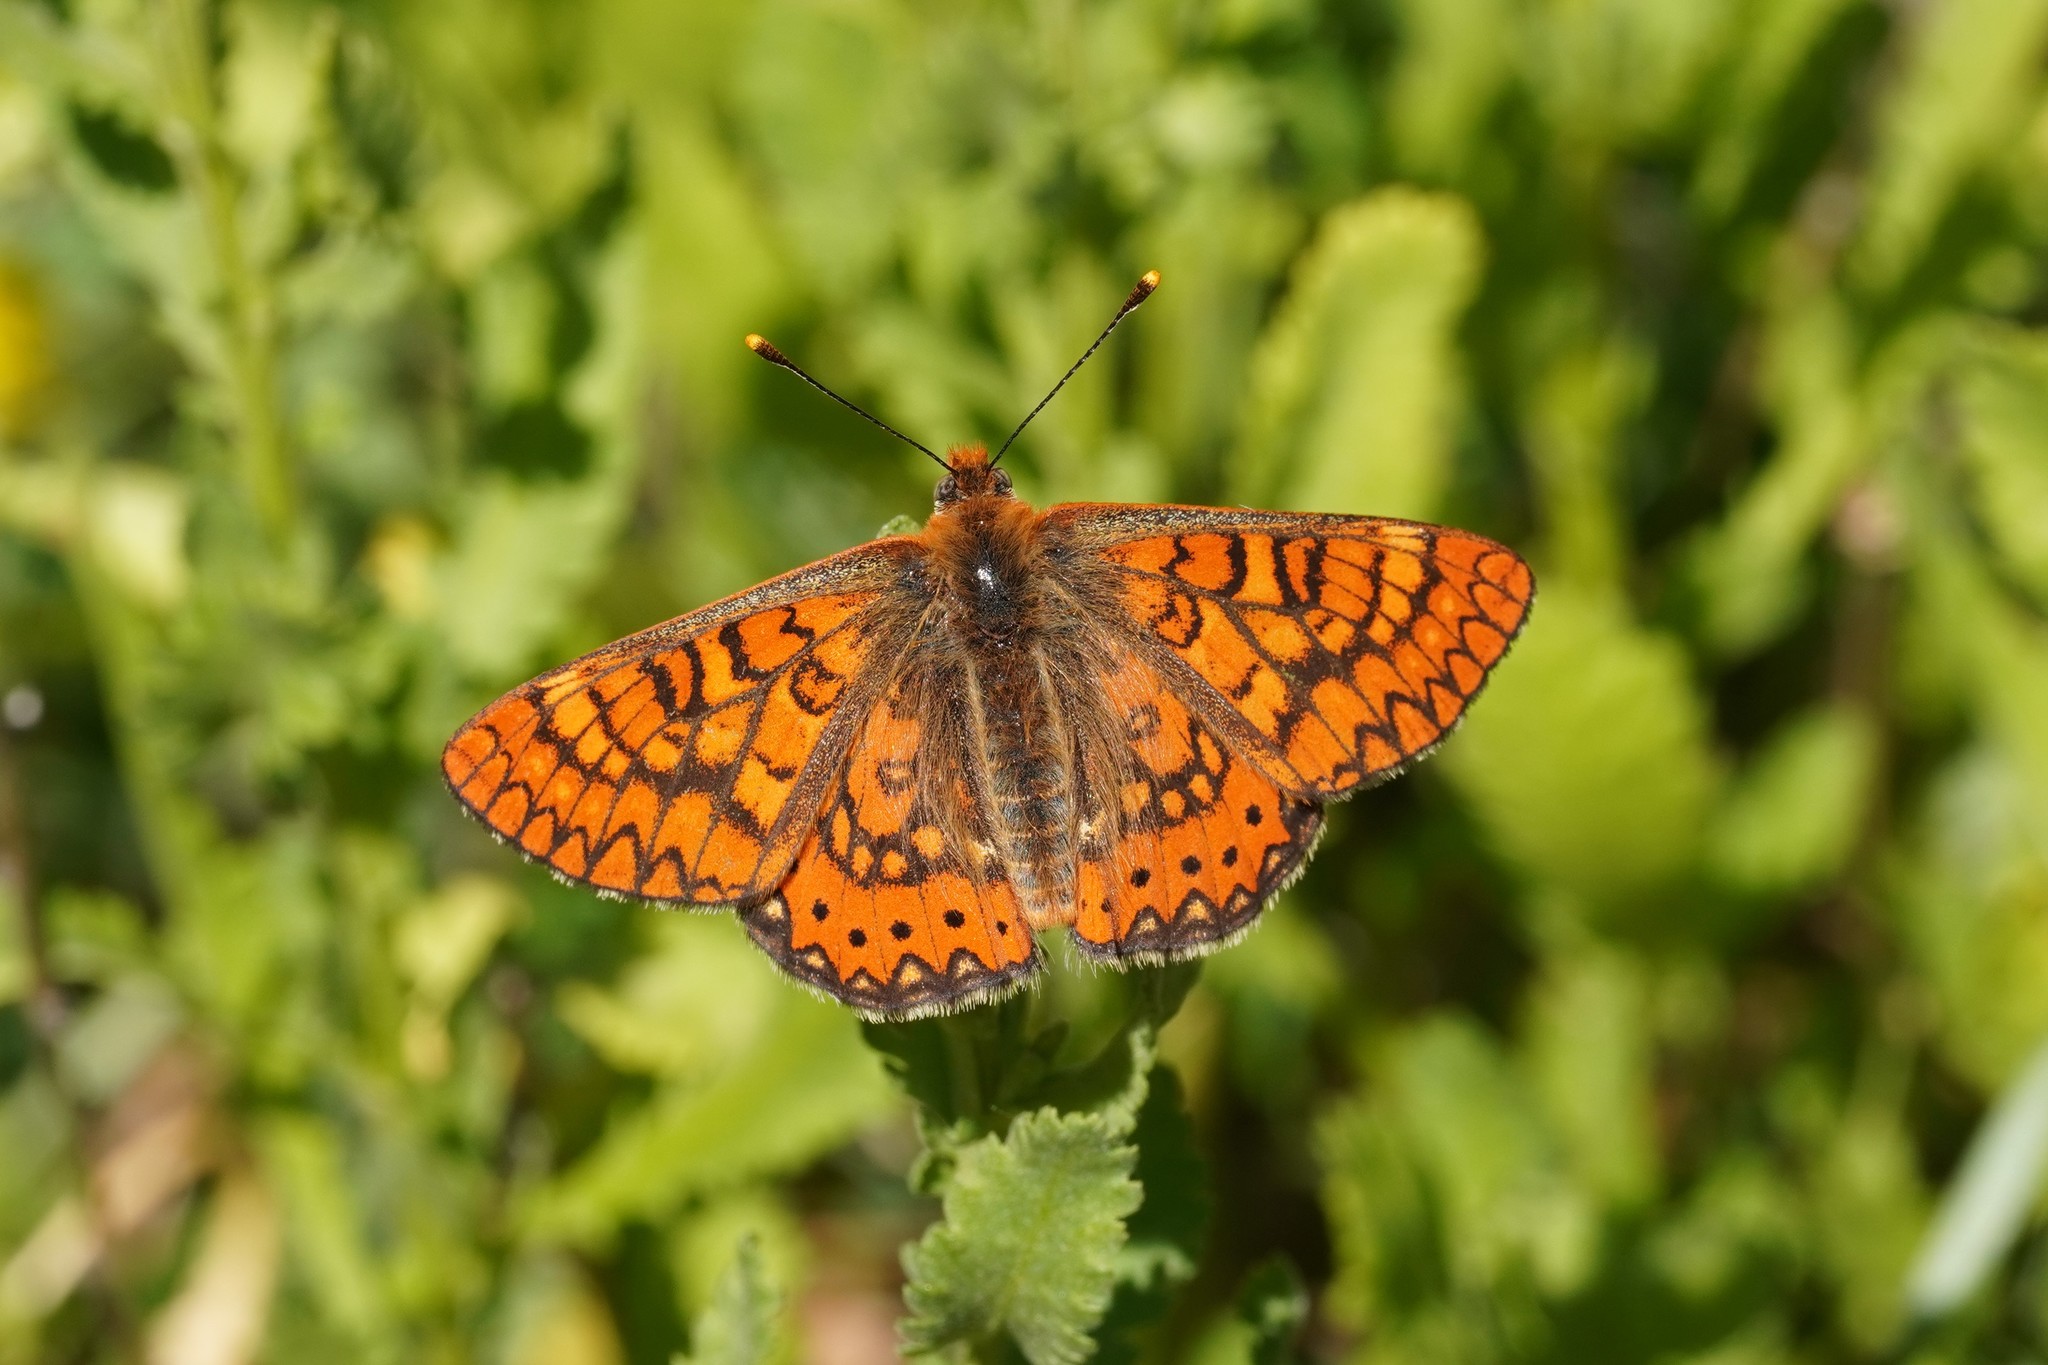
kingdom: Animalia
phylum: Arthropoda
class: Insecta
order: Lepidoptera
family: Nymphalidae
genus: Euphydryas
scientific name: Euphydryas aurinia
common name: Marsh fritillary
